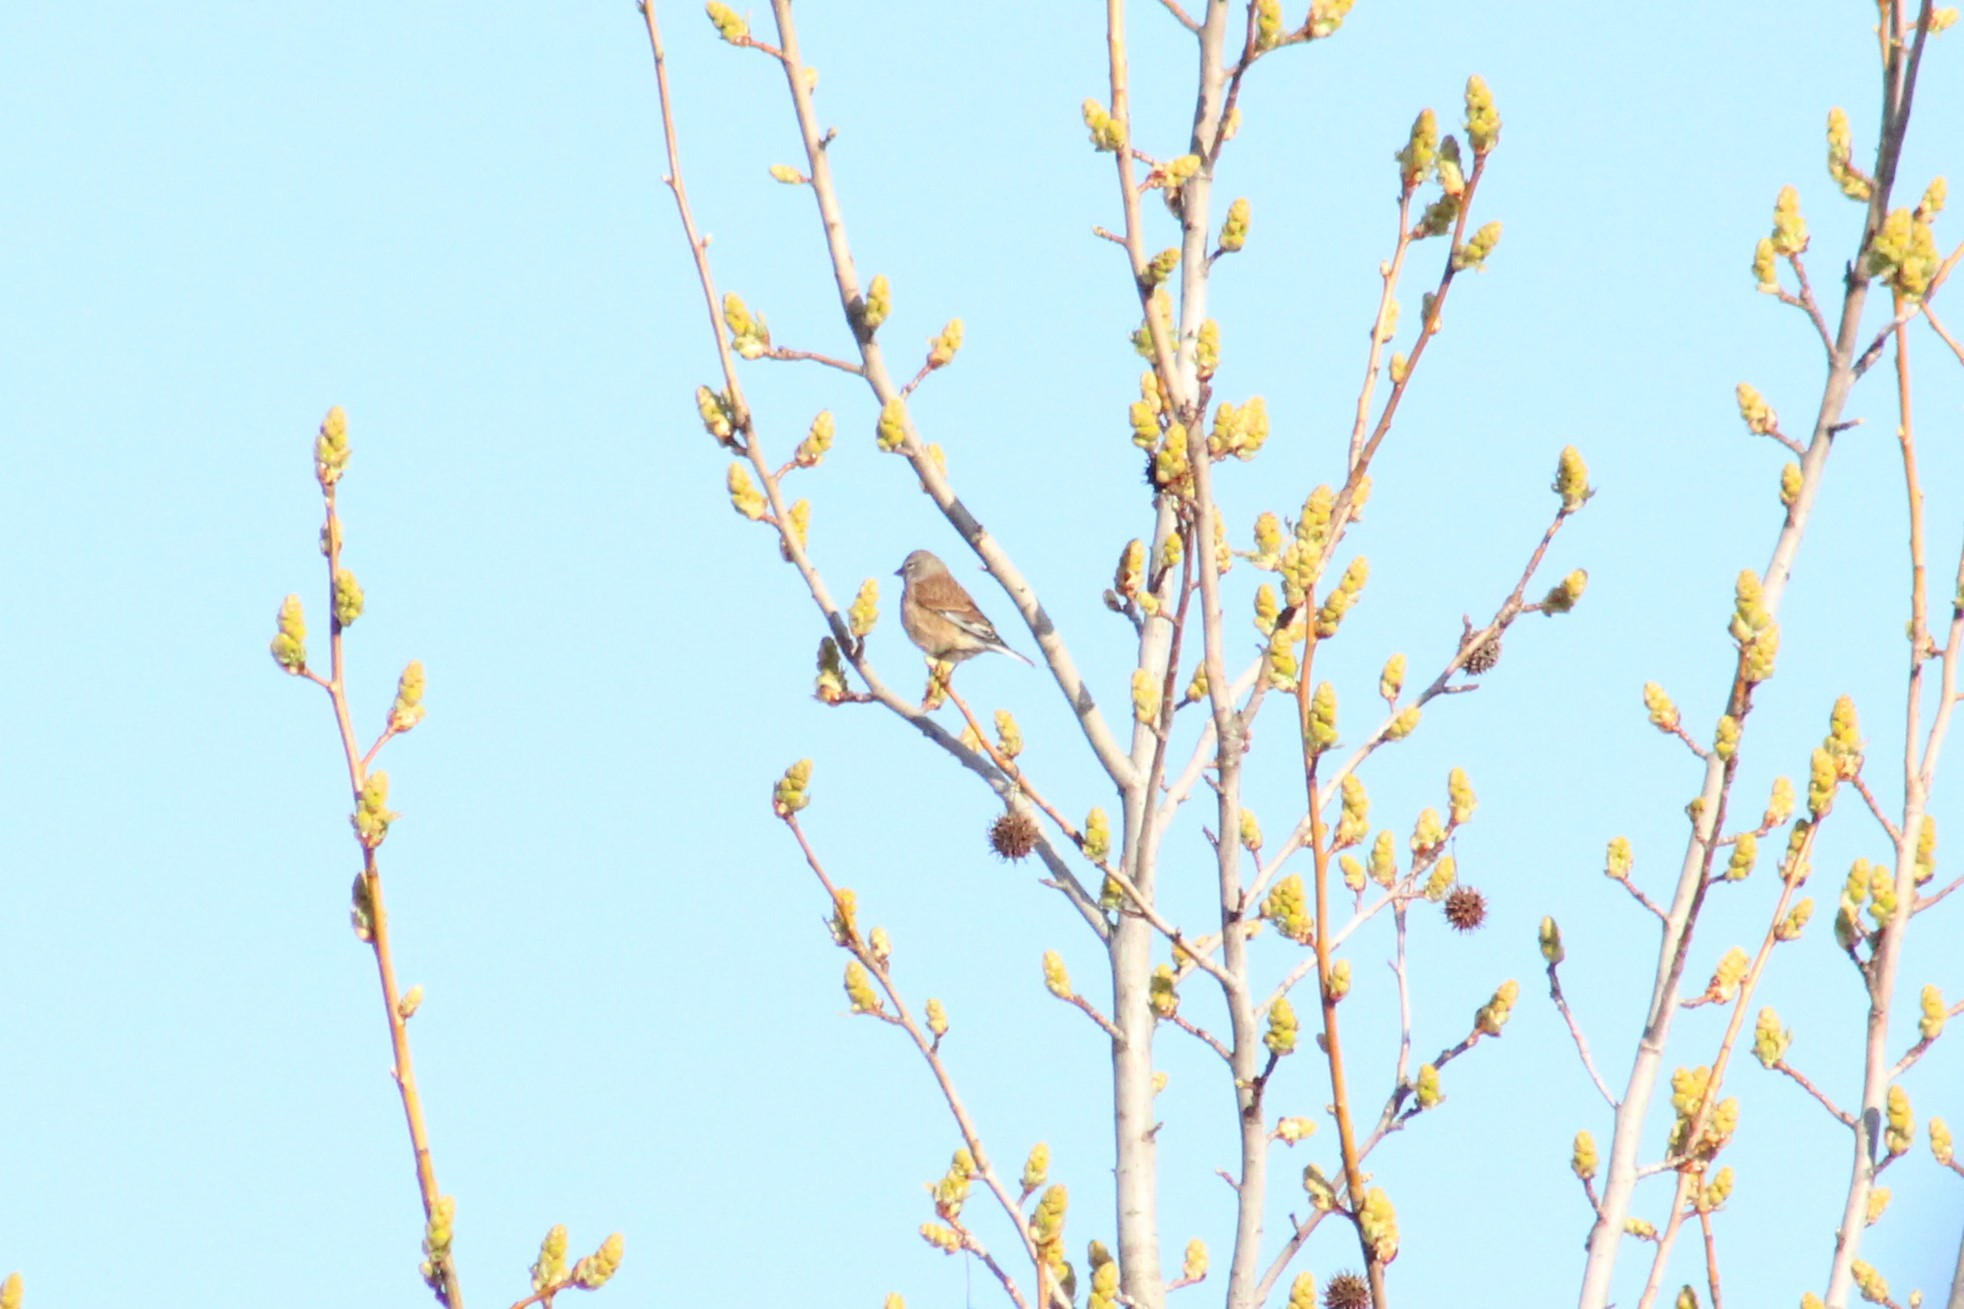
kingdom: Animalia
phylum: Chordata
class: Aves
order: Passeriformes
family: Fringillidae
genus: Linaria
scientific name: Linaria cannabina
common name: Common linnet
